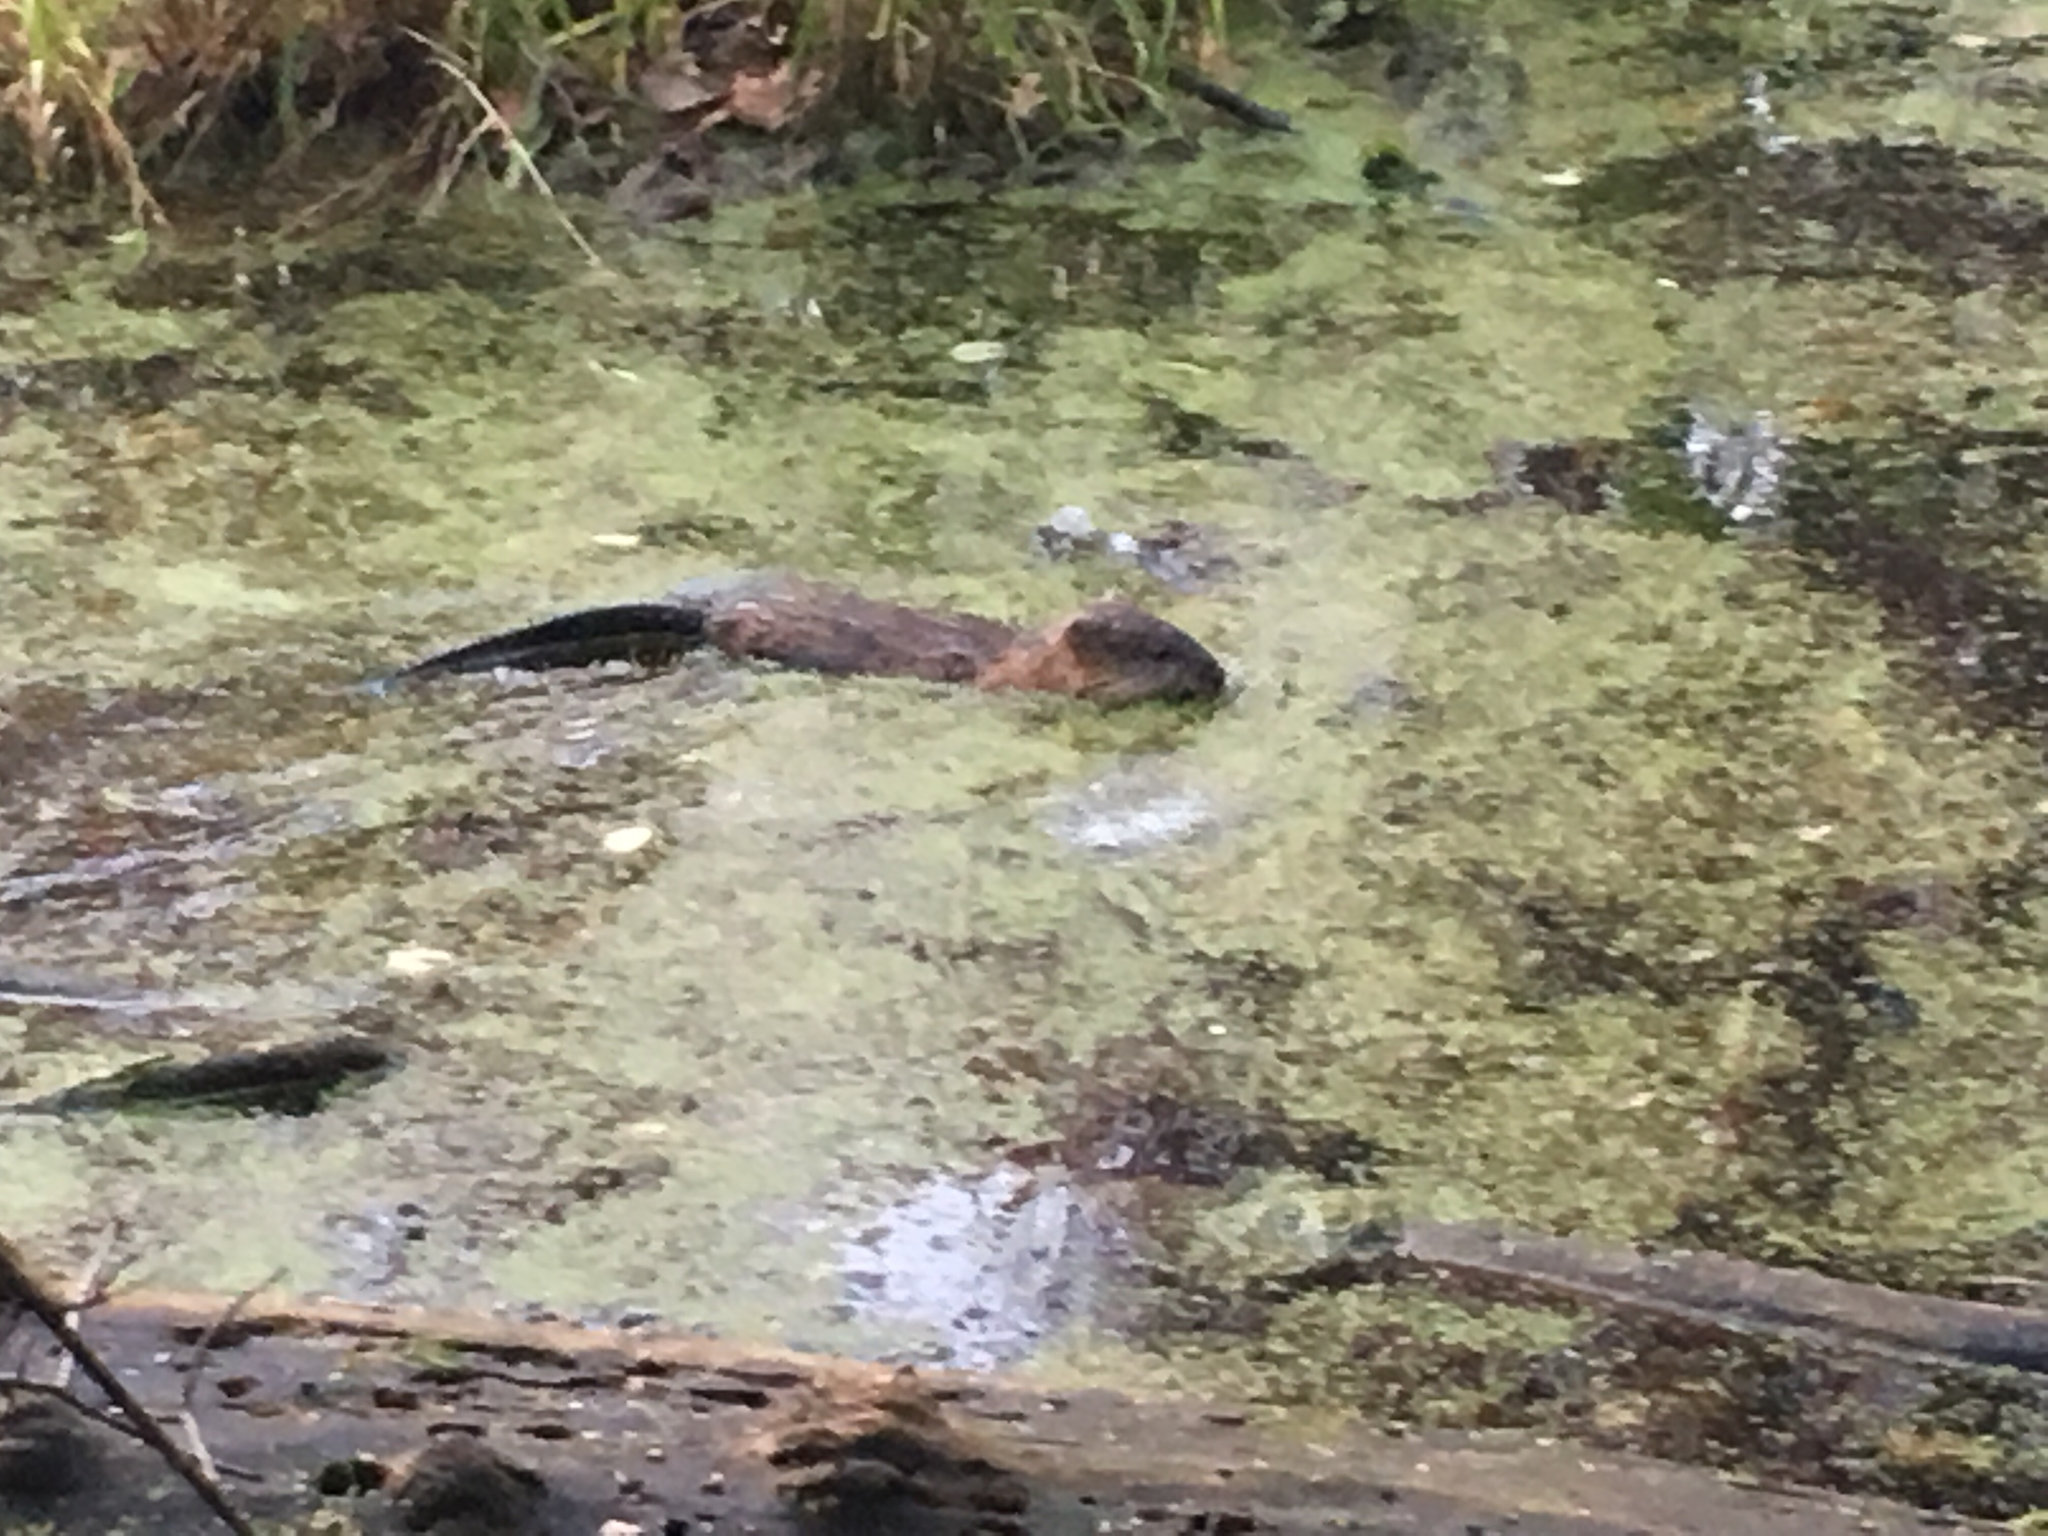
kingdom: Animalia
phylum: Chordata
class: Mammalia
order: Rodentia
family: Cricetidae
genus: Ondatra
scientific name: Ondatra zibethicus
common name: Muskrat
